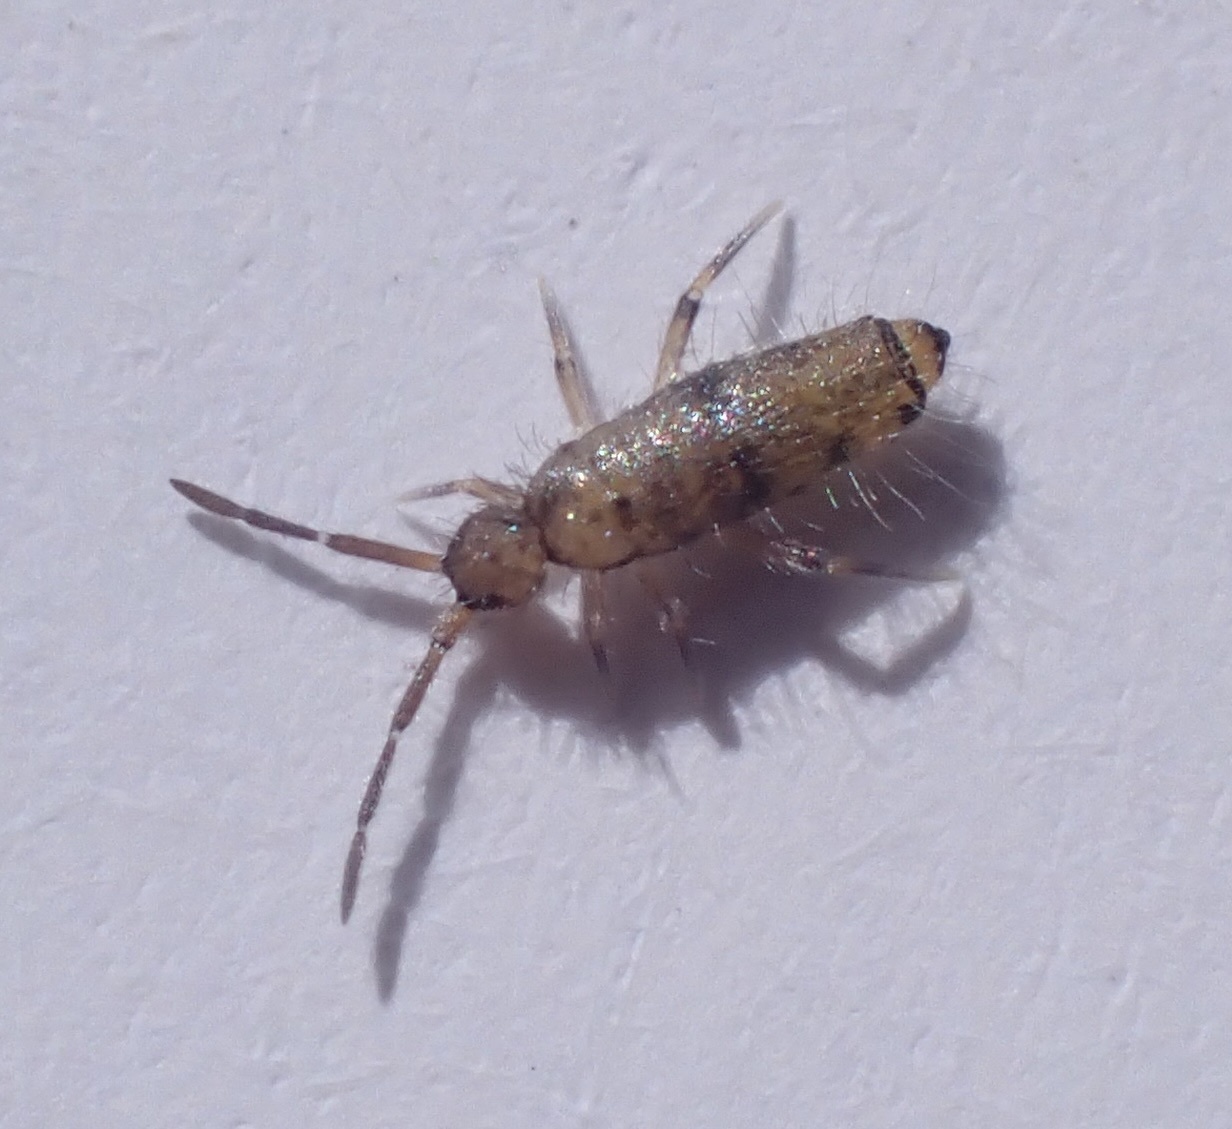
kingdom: Animalia
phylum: Arthropoda
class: Collembola
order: Entomobryomorpha
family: Entomobryidae
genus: Willowsia
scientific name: Willowsia nigromaculata
